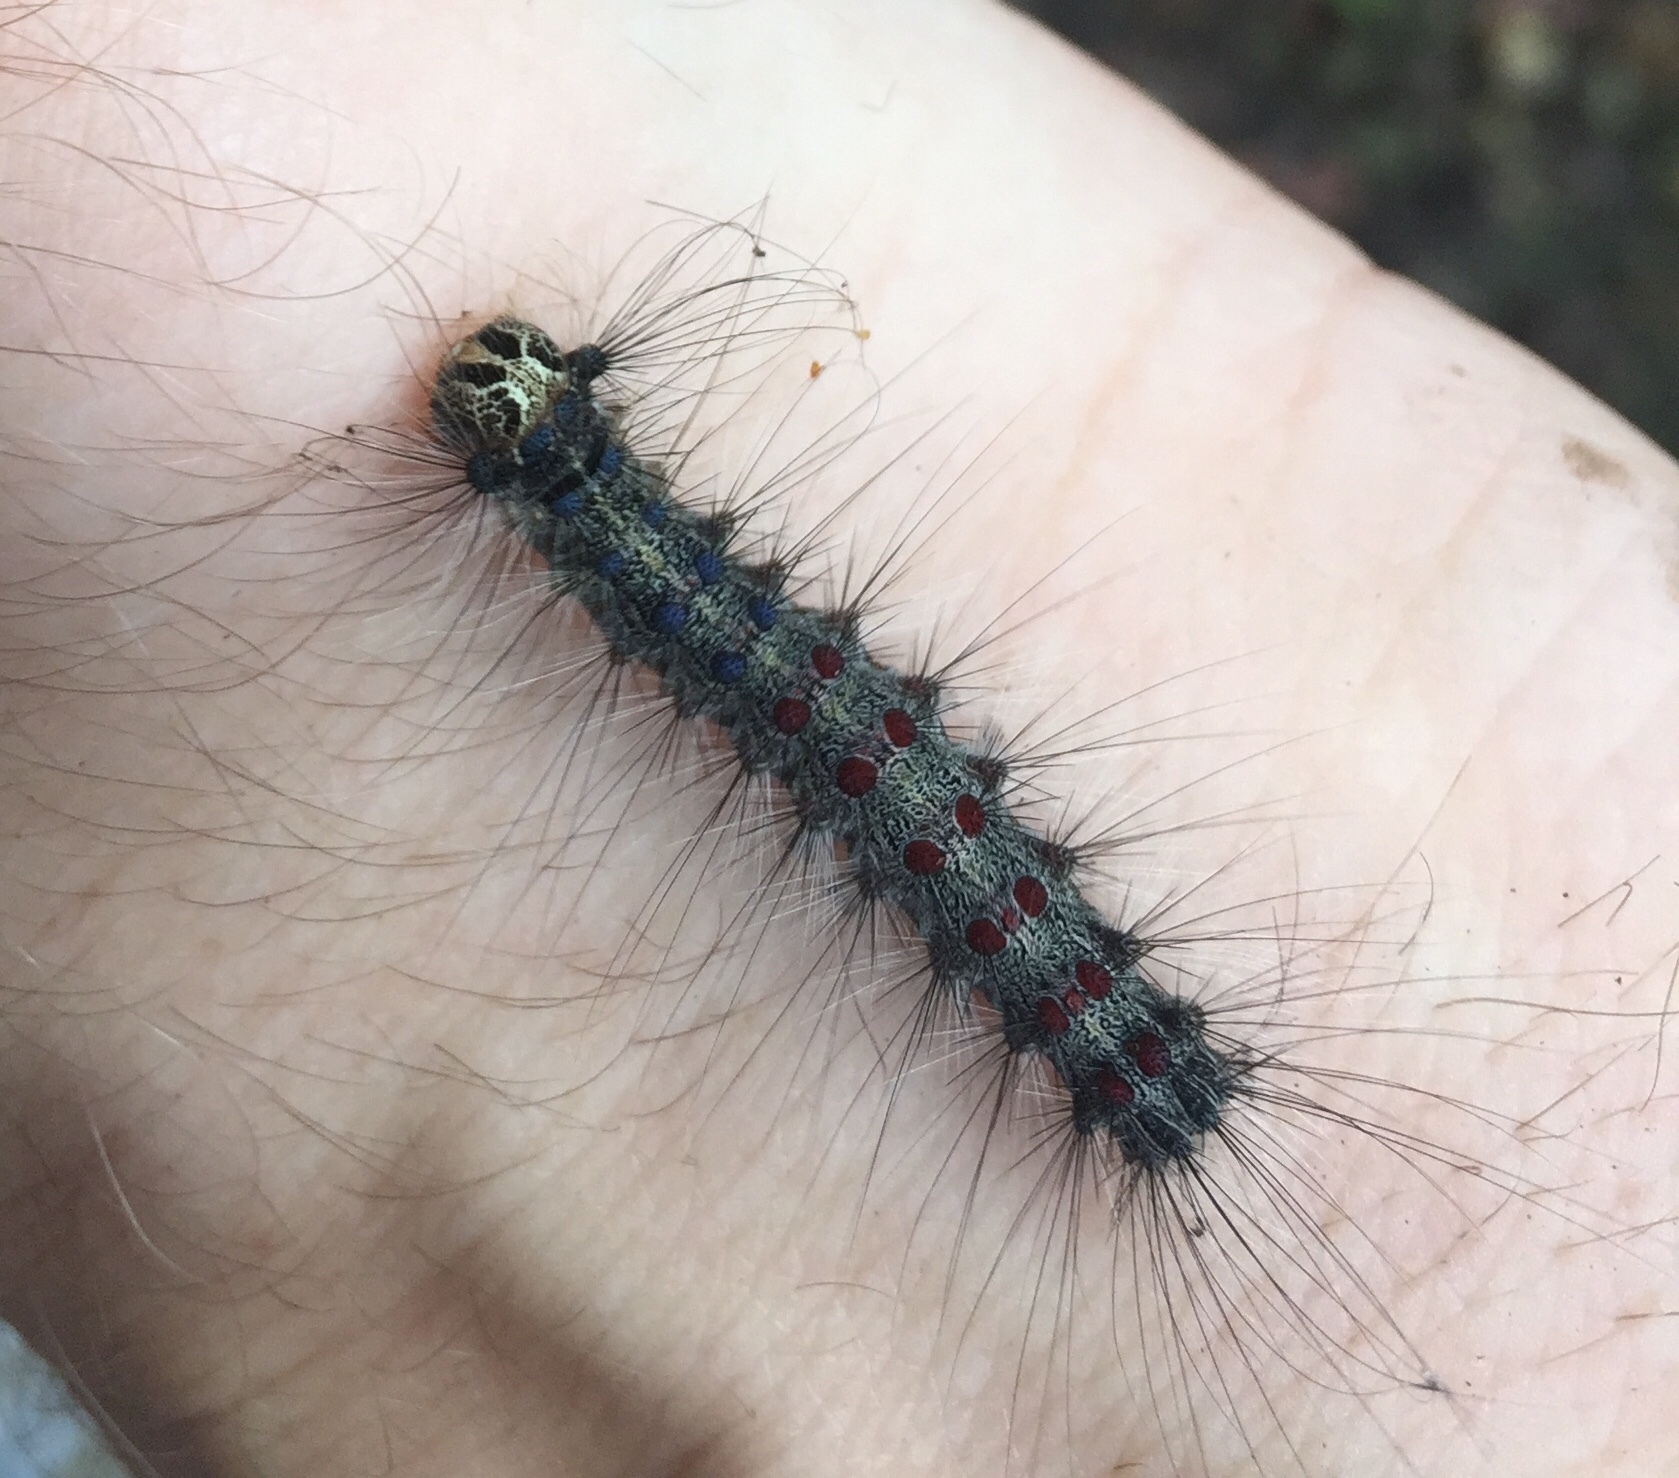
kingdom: Animalia
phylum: Arthropoda
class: Insecta
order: Lepidoptera
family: Erebidae
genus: Lymantria
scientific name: Lymantria dispar
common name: Gypsy moth
